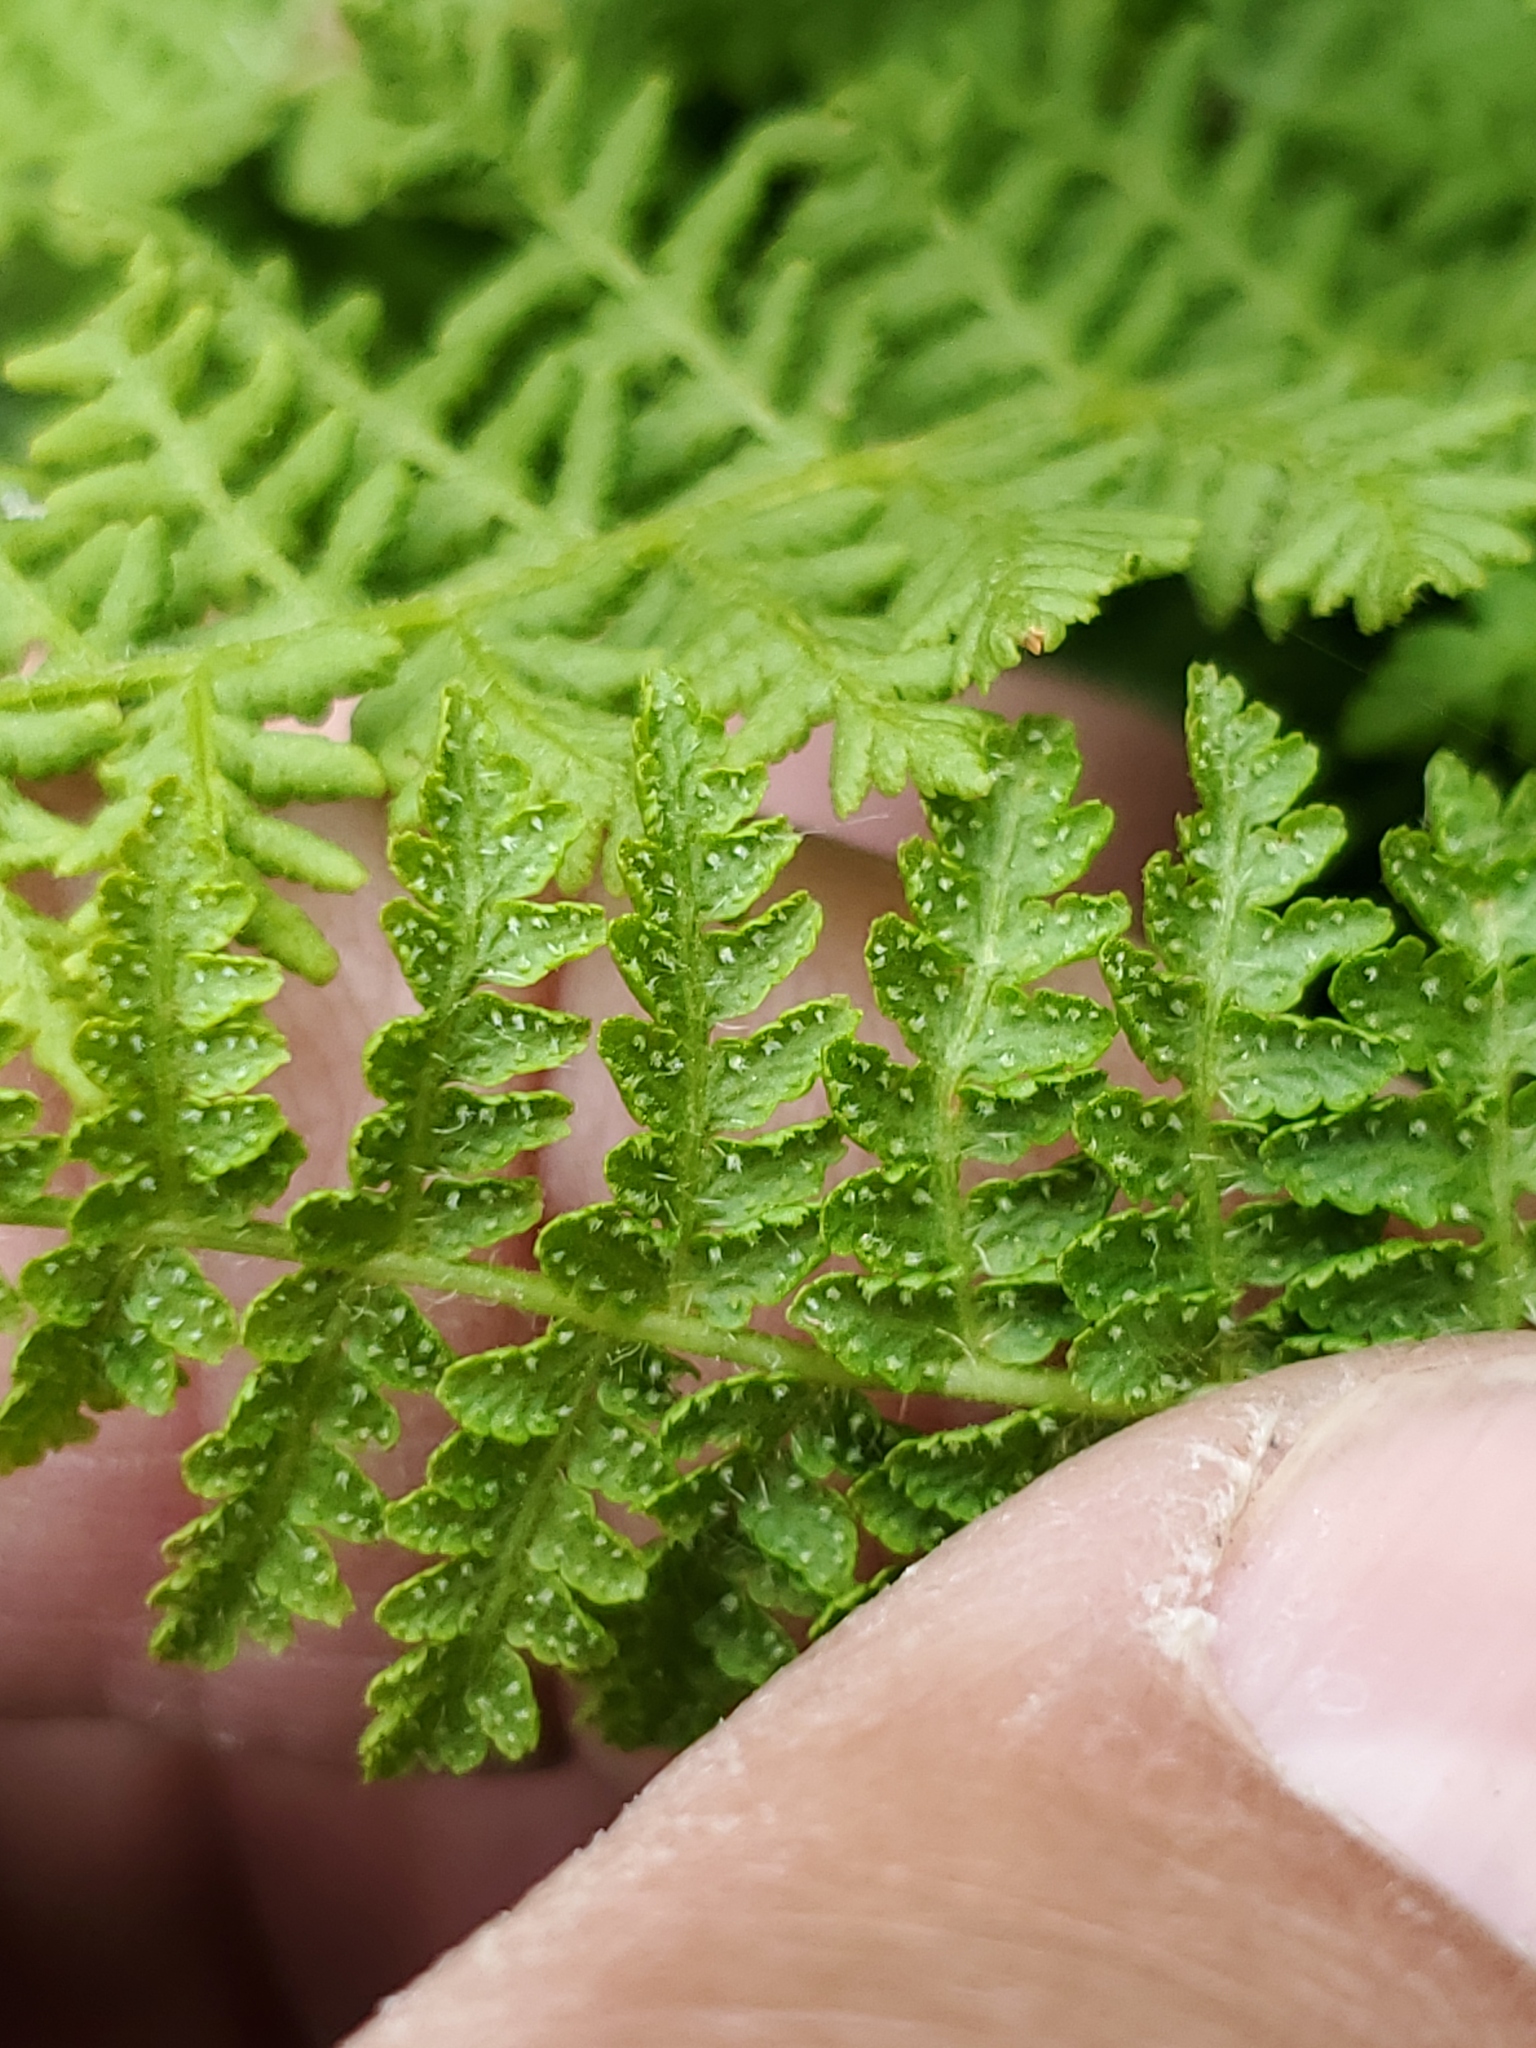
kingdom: Plantae
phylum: Tracheophyta
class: Polypodiopsida
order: Polypodiales
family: Woodsiaceae
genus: Physematium
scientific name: Physematium scopulinum
